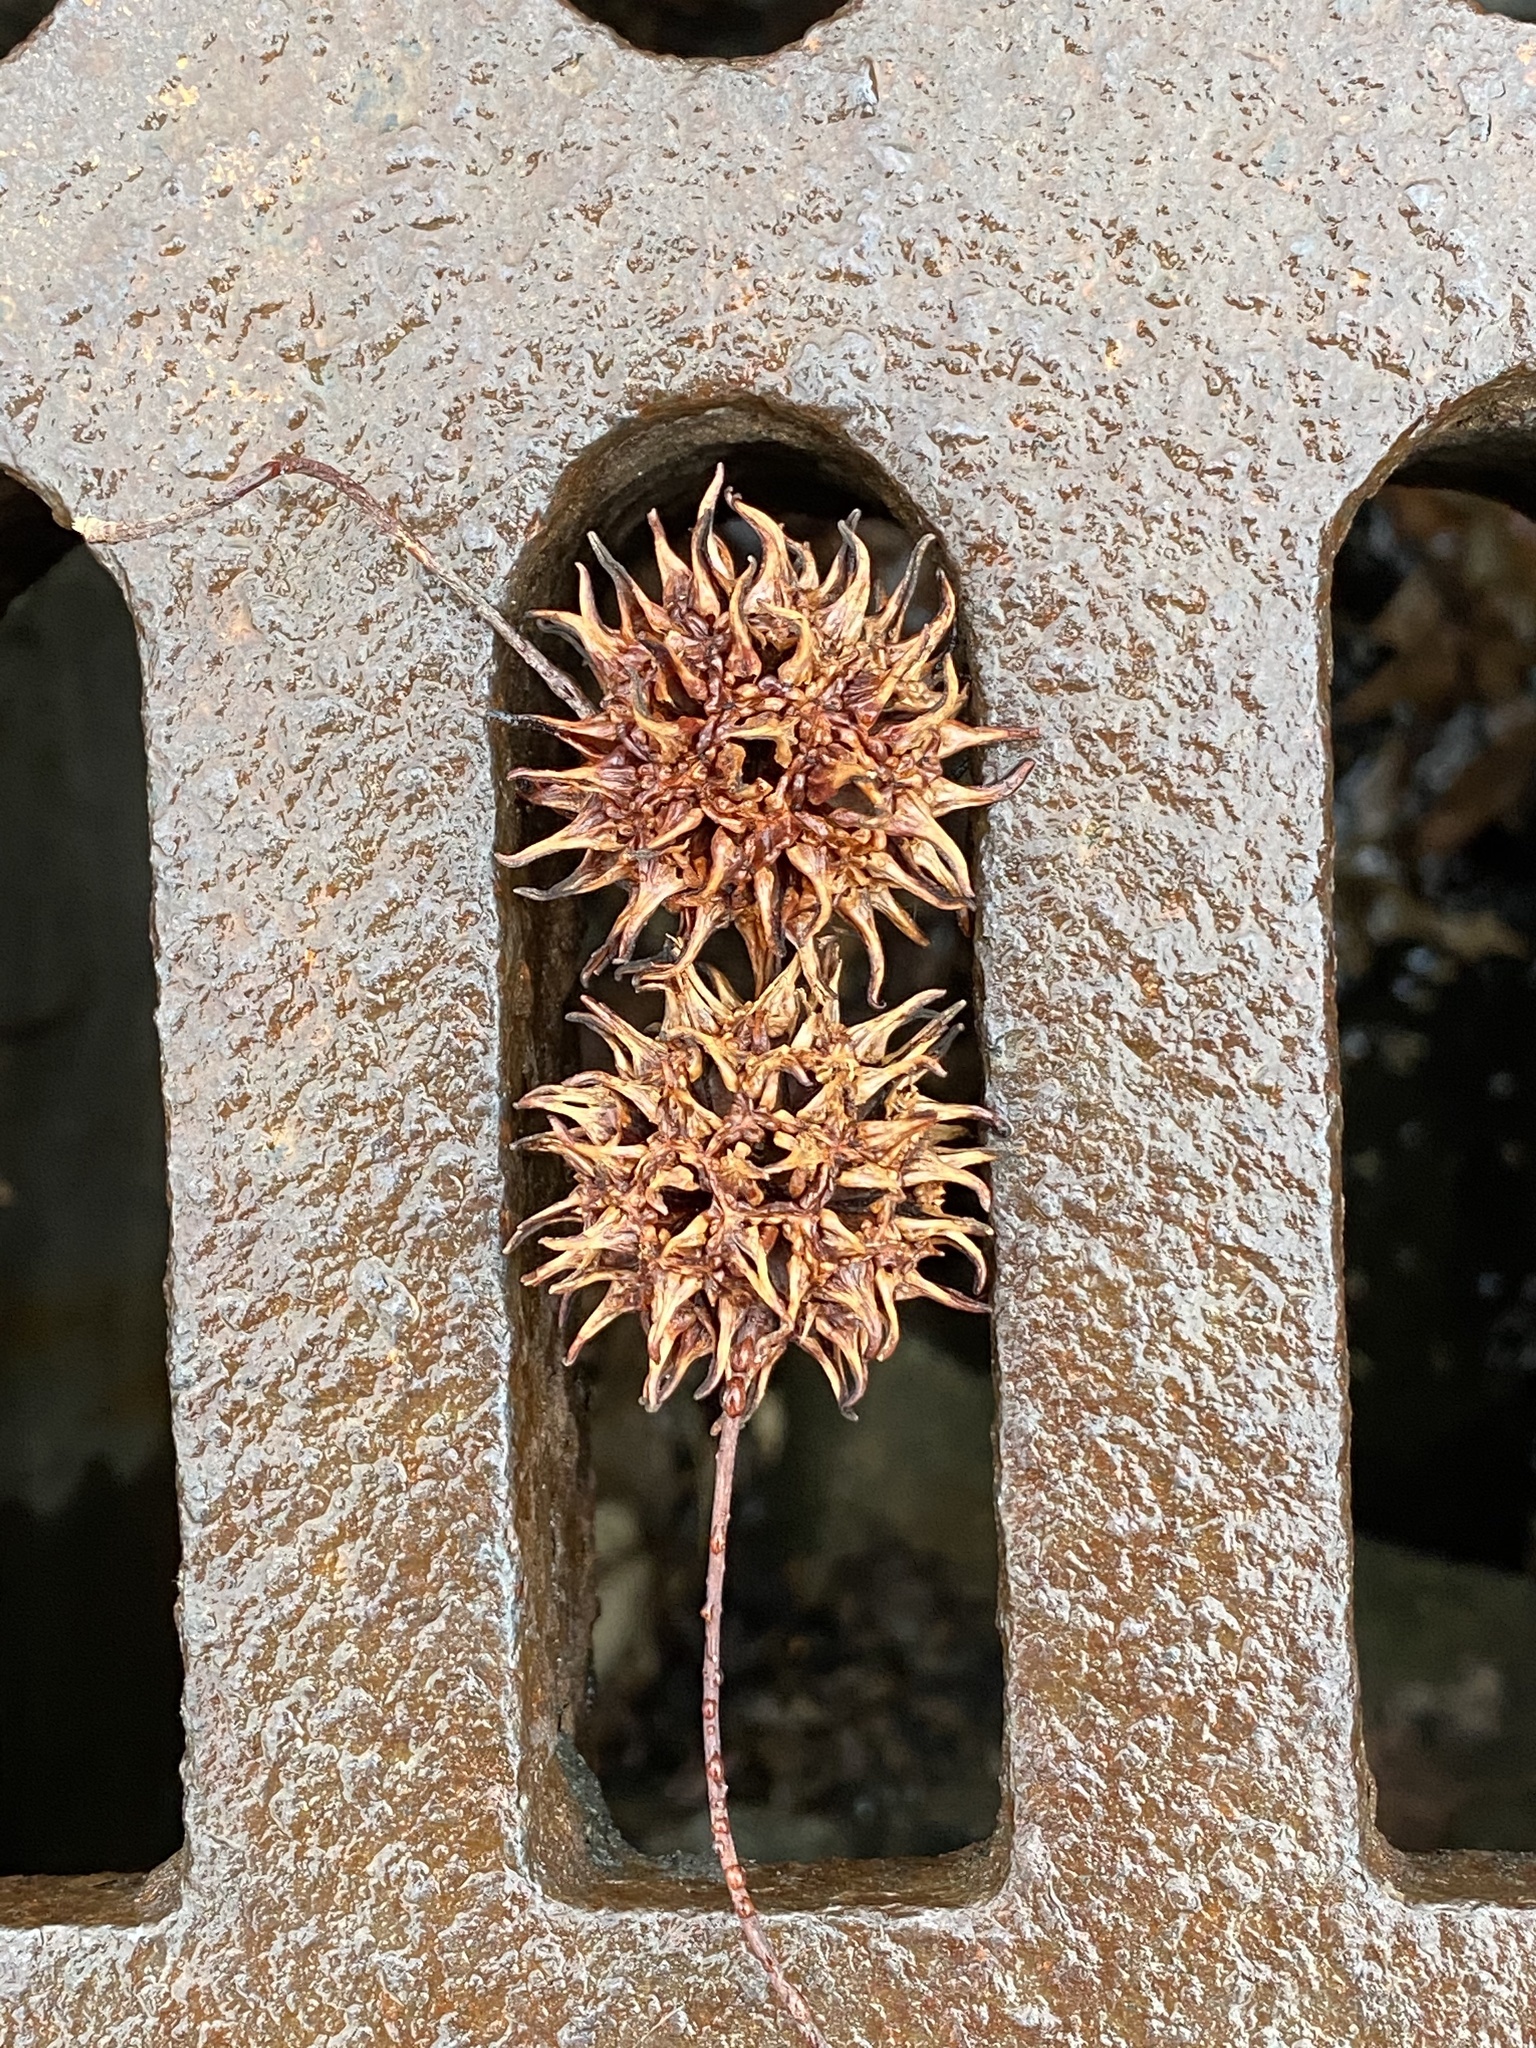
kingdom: Plantae
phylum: Tracheophyta
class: Magnoliopsida
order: Saxifragales
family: Altingiaceae
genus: Liquidambar
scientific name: Liquidambar styraciflua
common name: Sweet gum
